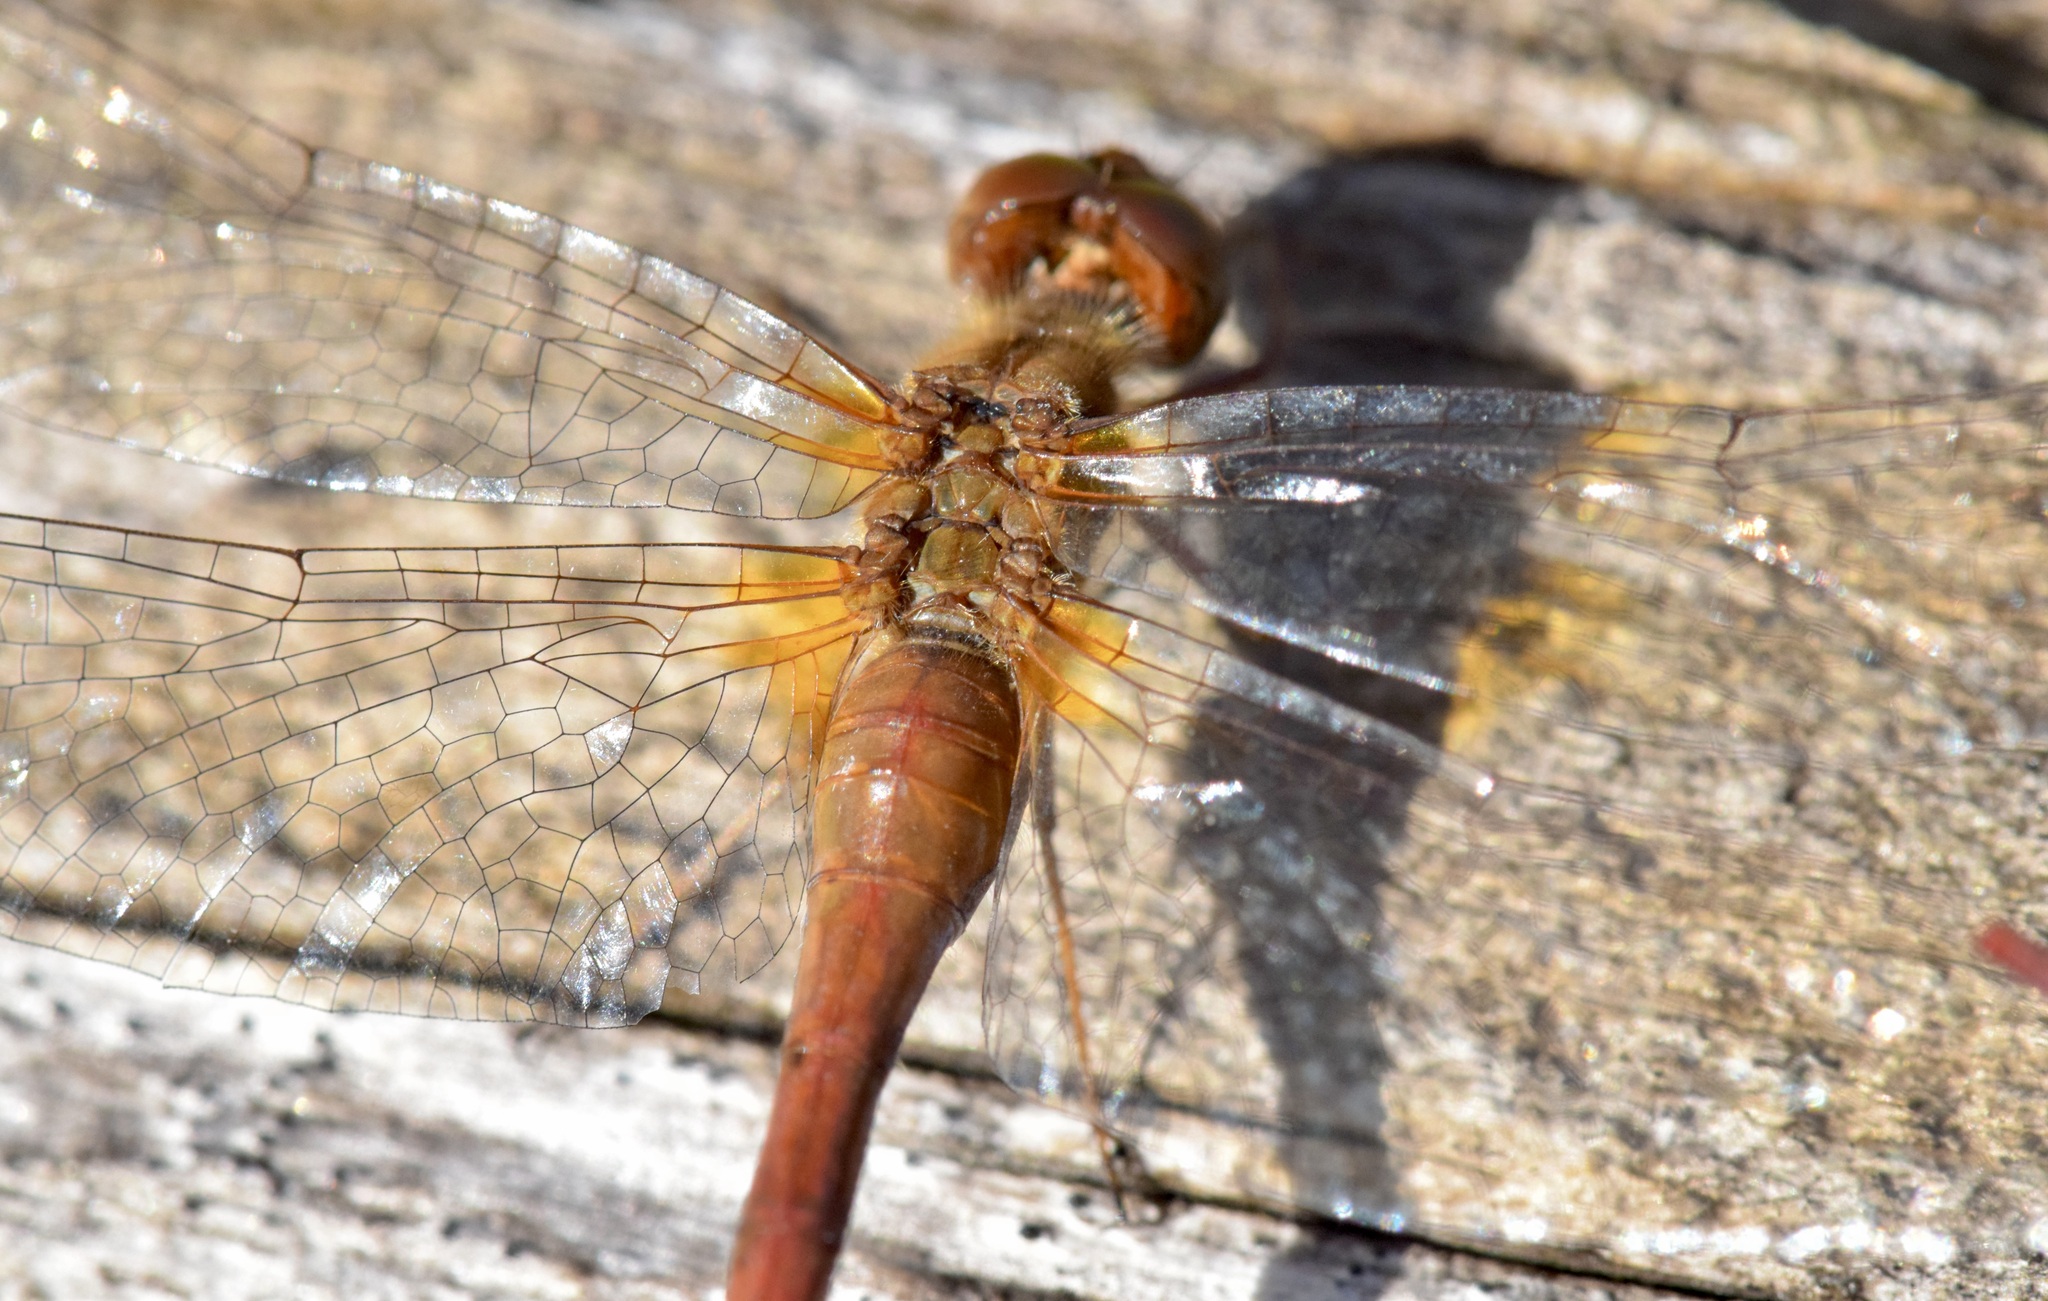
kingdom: Animalia
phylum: Arthropoda
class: Insecta
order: Odonata
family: Libellulidae
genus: Sympetrum
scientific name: Sympetrum vicinum
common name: Autumn meadowhawk
